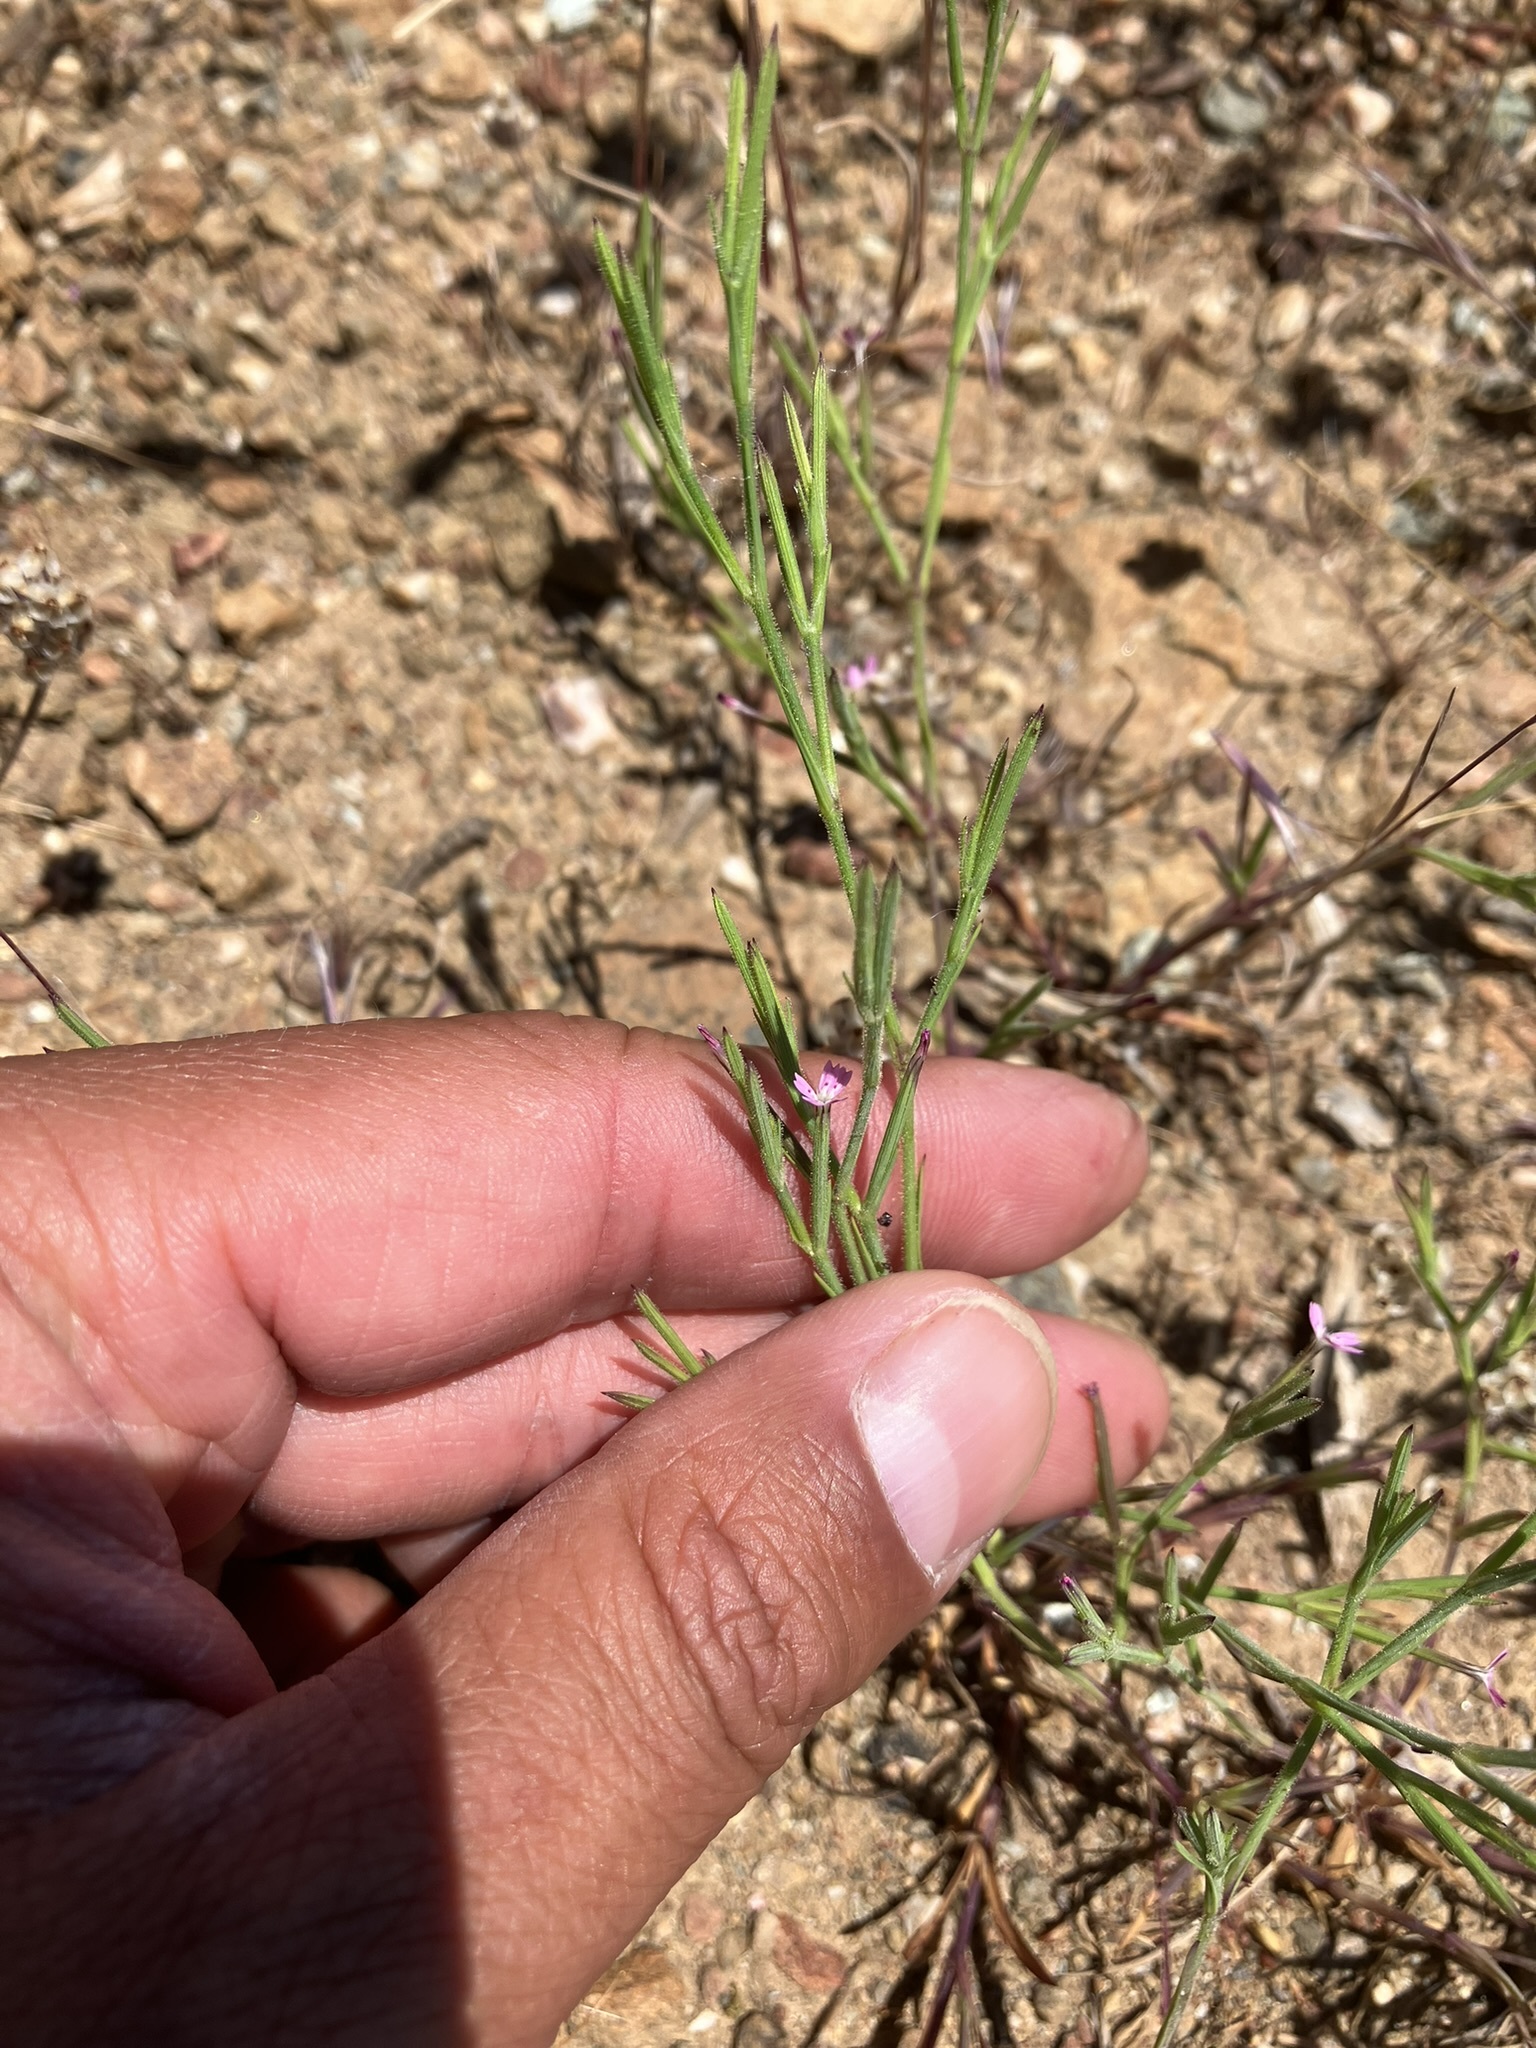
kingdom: Plantae
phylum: Tracheophyta
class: Magnoliopsida
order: Caryophyllales
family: Caryophyllaceae
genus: Dianthus
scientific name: Dianthus nudiflorus
